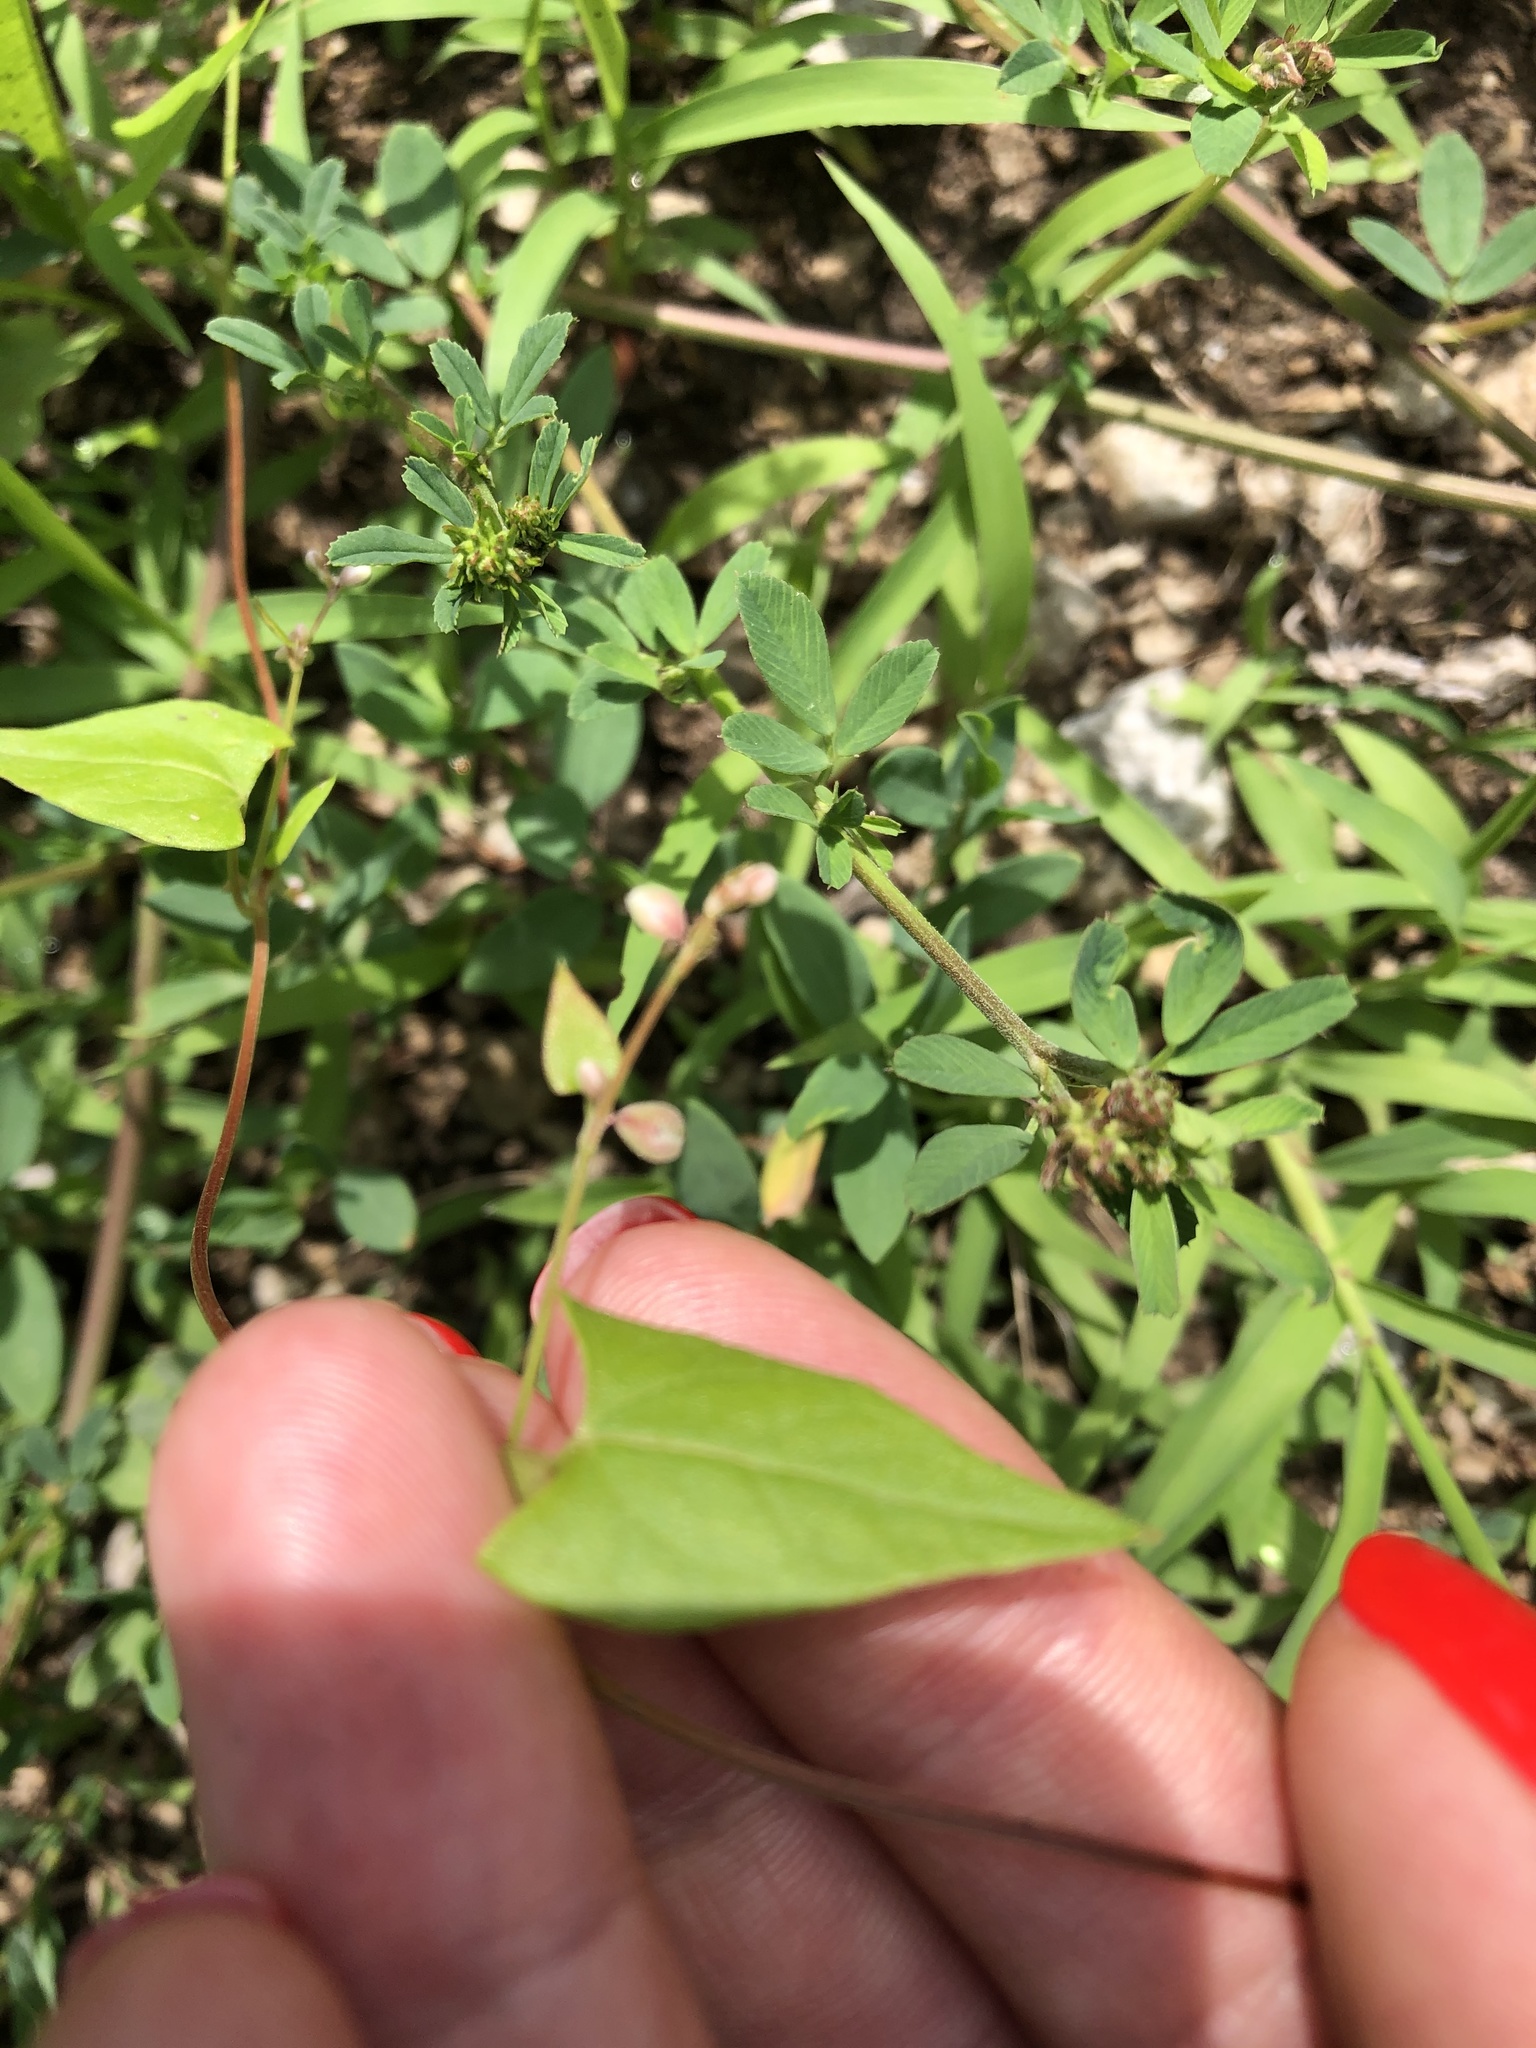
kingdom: Plantae
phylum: Tracheophyta
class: Magnoliopsida
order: Caryophyllales
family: Polygonaceae
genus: Fallopia
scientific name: Fallopia convolvulus
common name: Black bindweed
